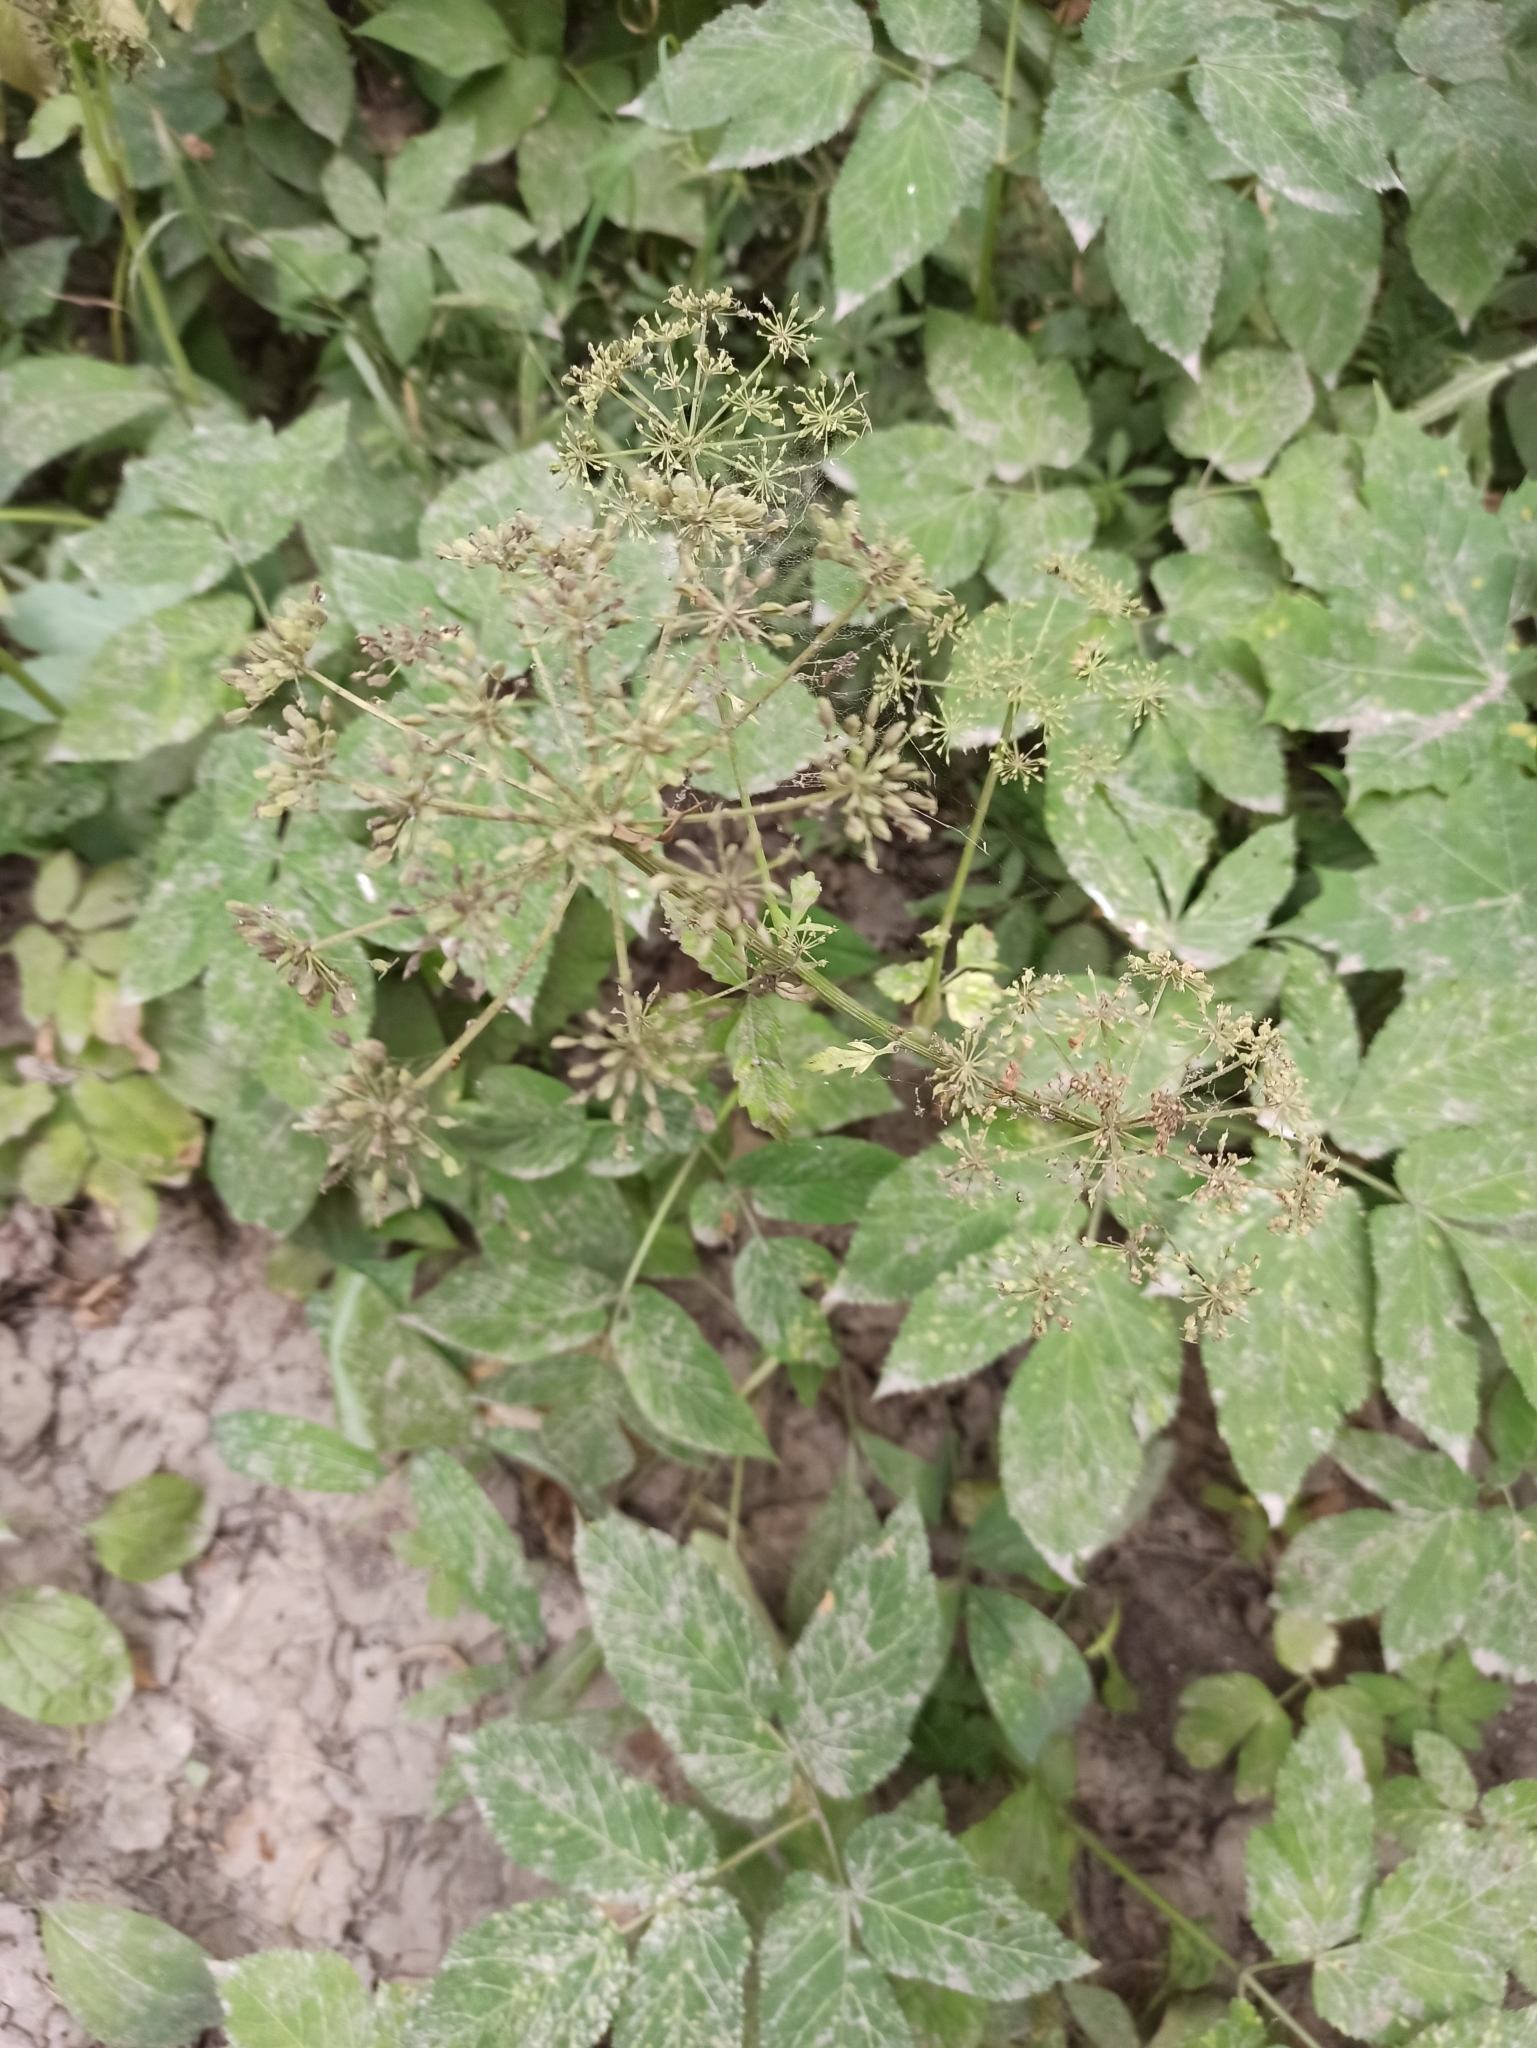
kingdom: Plantae
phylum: Tracheophyta
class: Magnoliopsida
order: Apiales
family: Apiaceae
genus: Aegopodium
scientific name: Aegopodium podagraria
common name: Ground-elder
